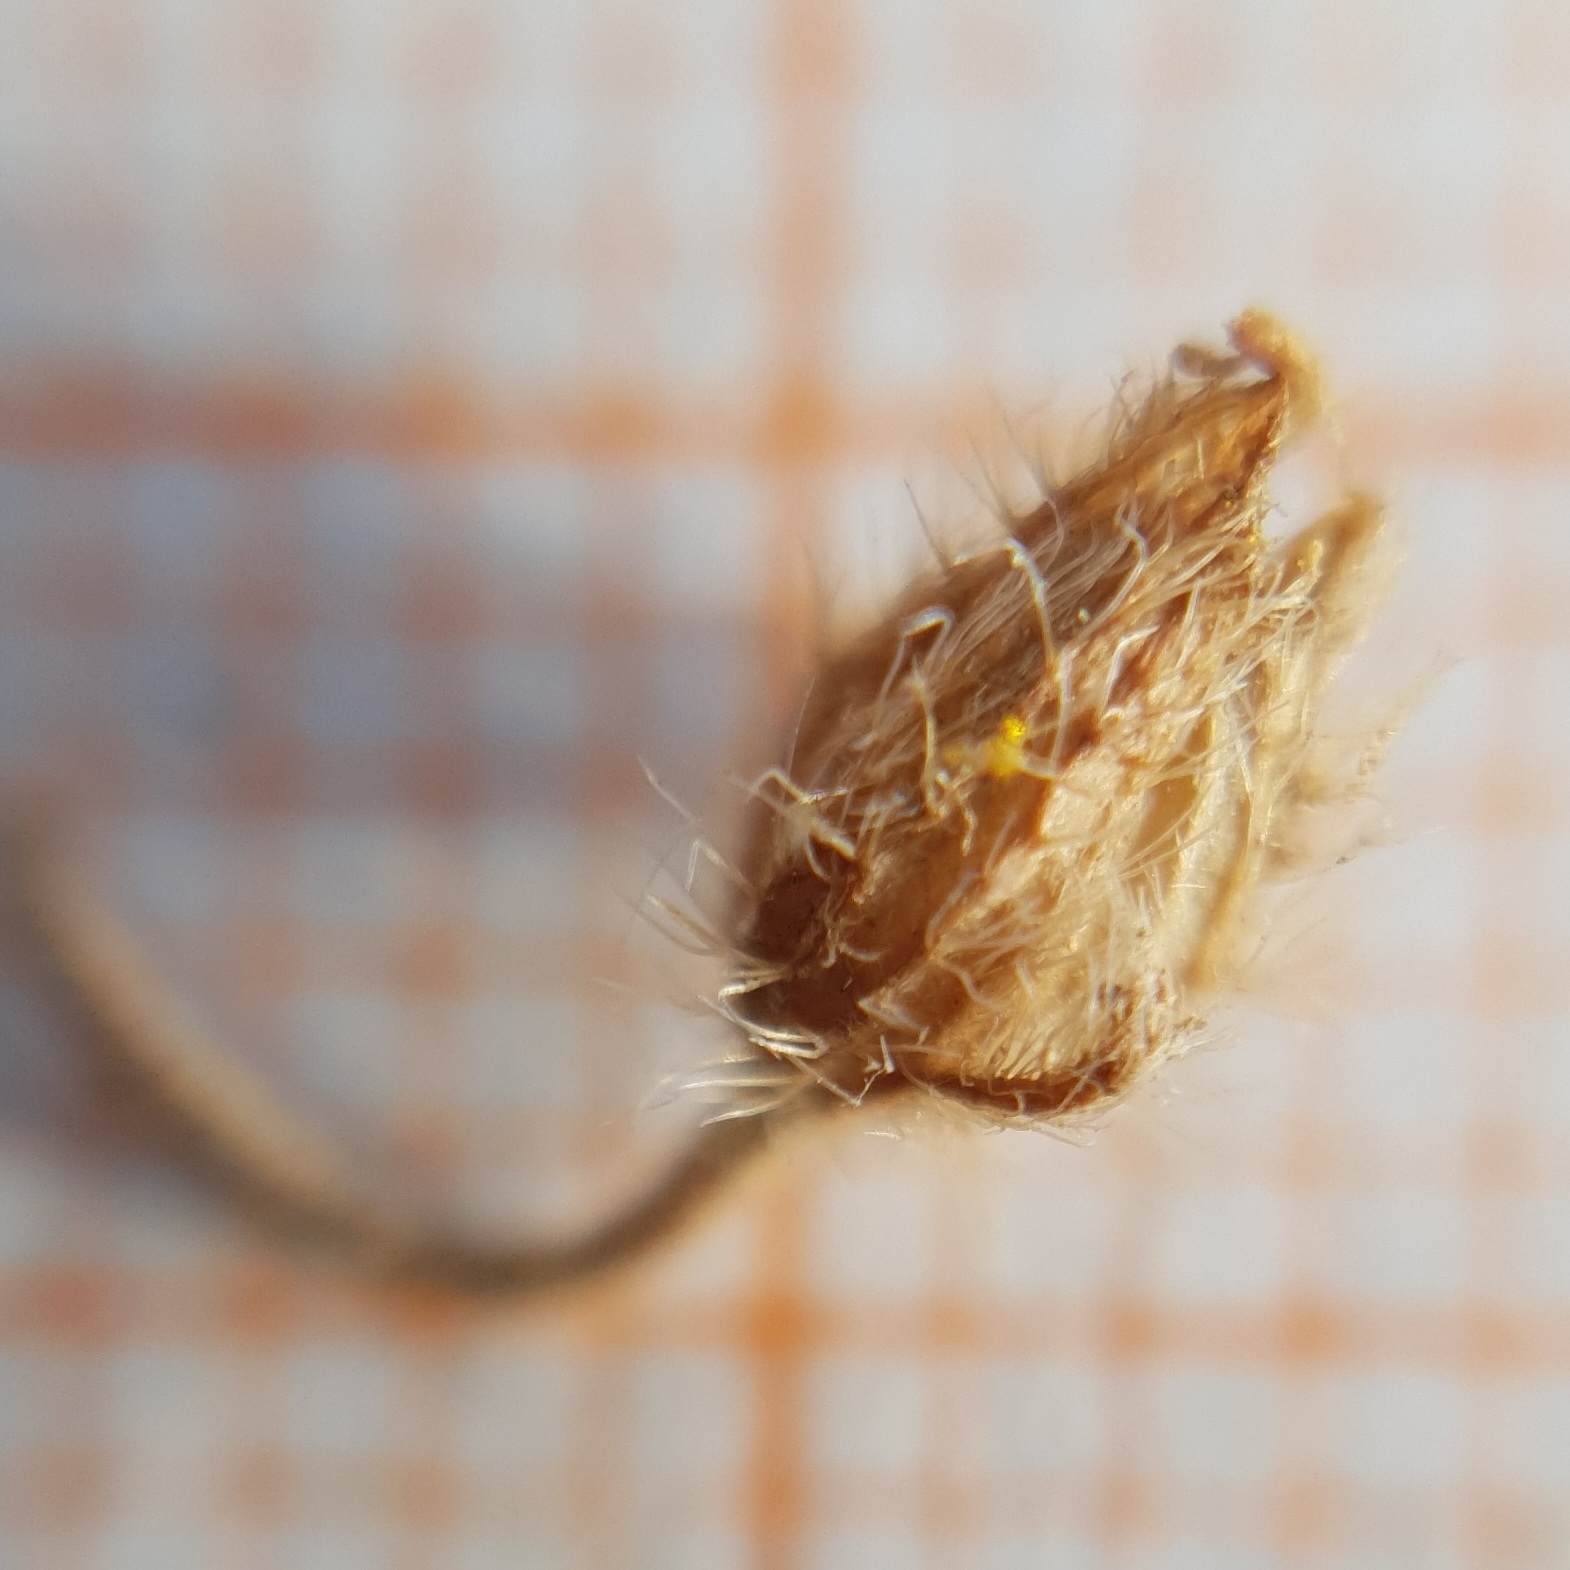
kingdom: Plantae
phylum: Tracheophyta
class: Magnoliopsida
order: Malvales
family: Cistaceae
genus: Helianthemum
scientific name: Helianthemum cinereum
